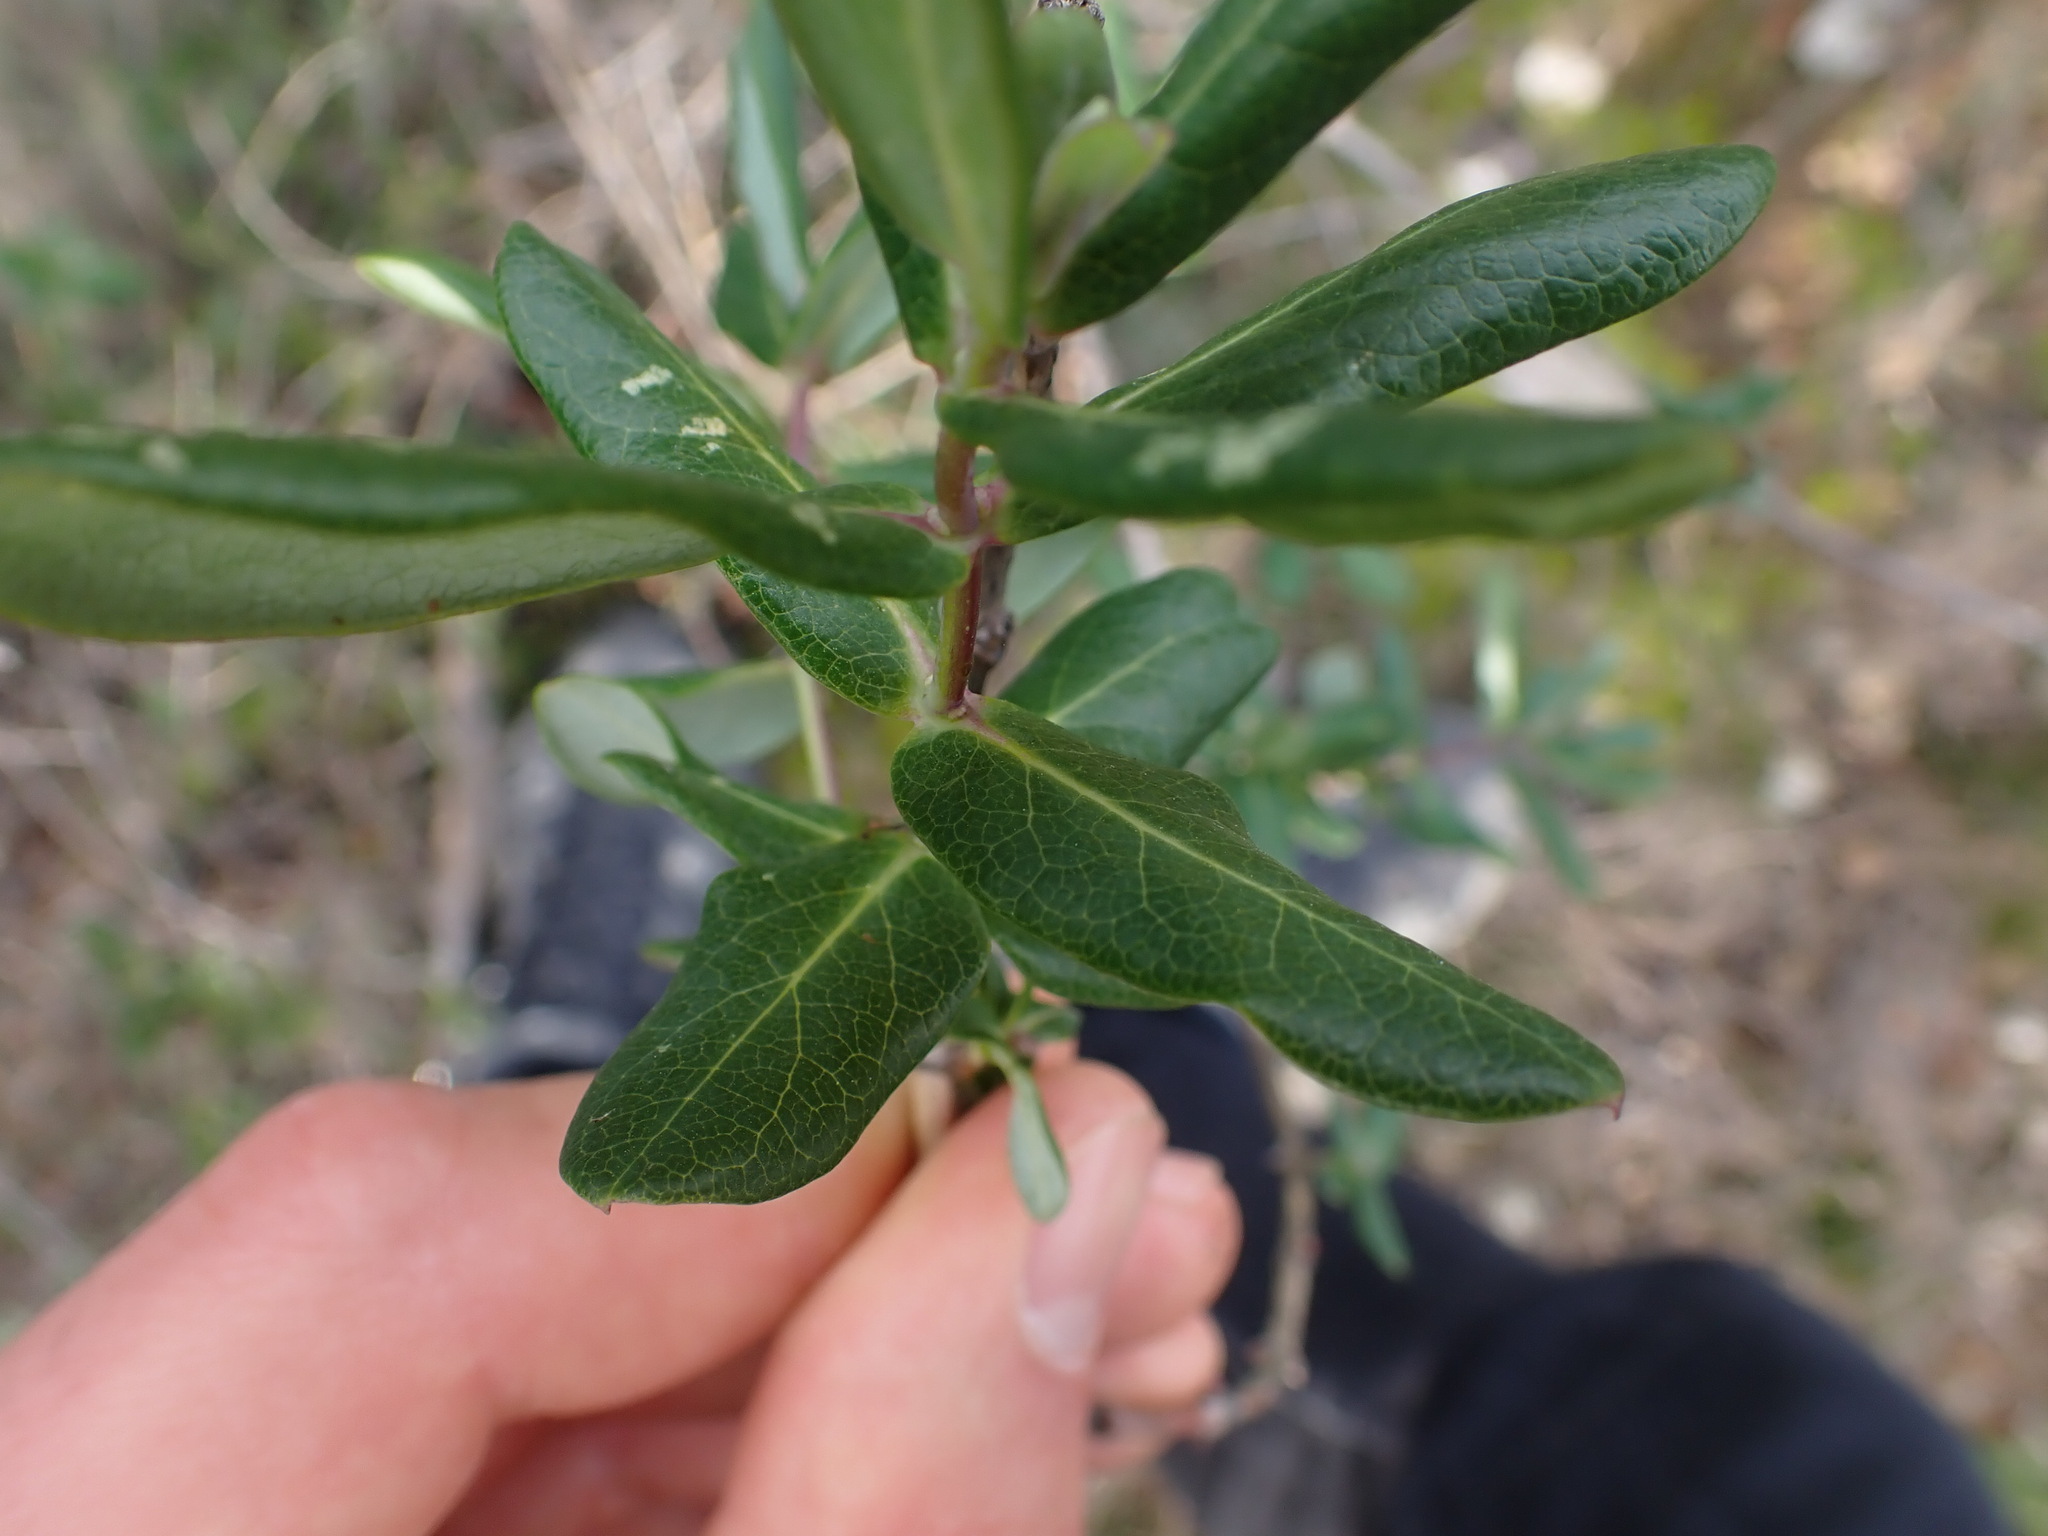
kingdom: Plantae
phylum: Tracheophyta
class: Magnoliopsida
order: Dipsacales
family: Caprifoliaceae
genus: Lonicera
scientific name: Lonicera implexa
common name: Minorca honeysuckle
